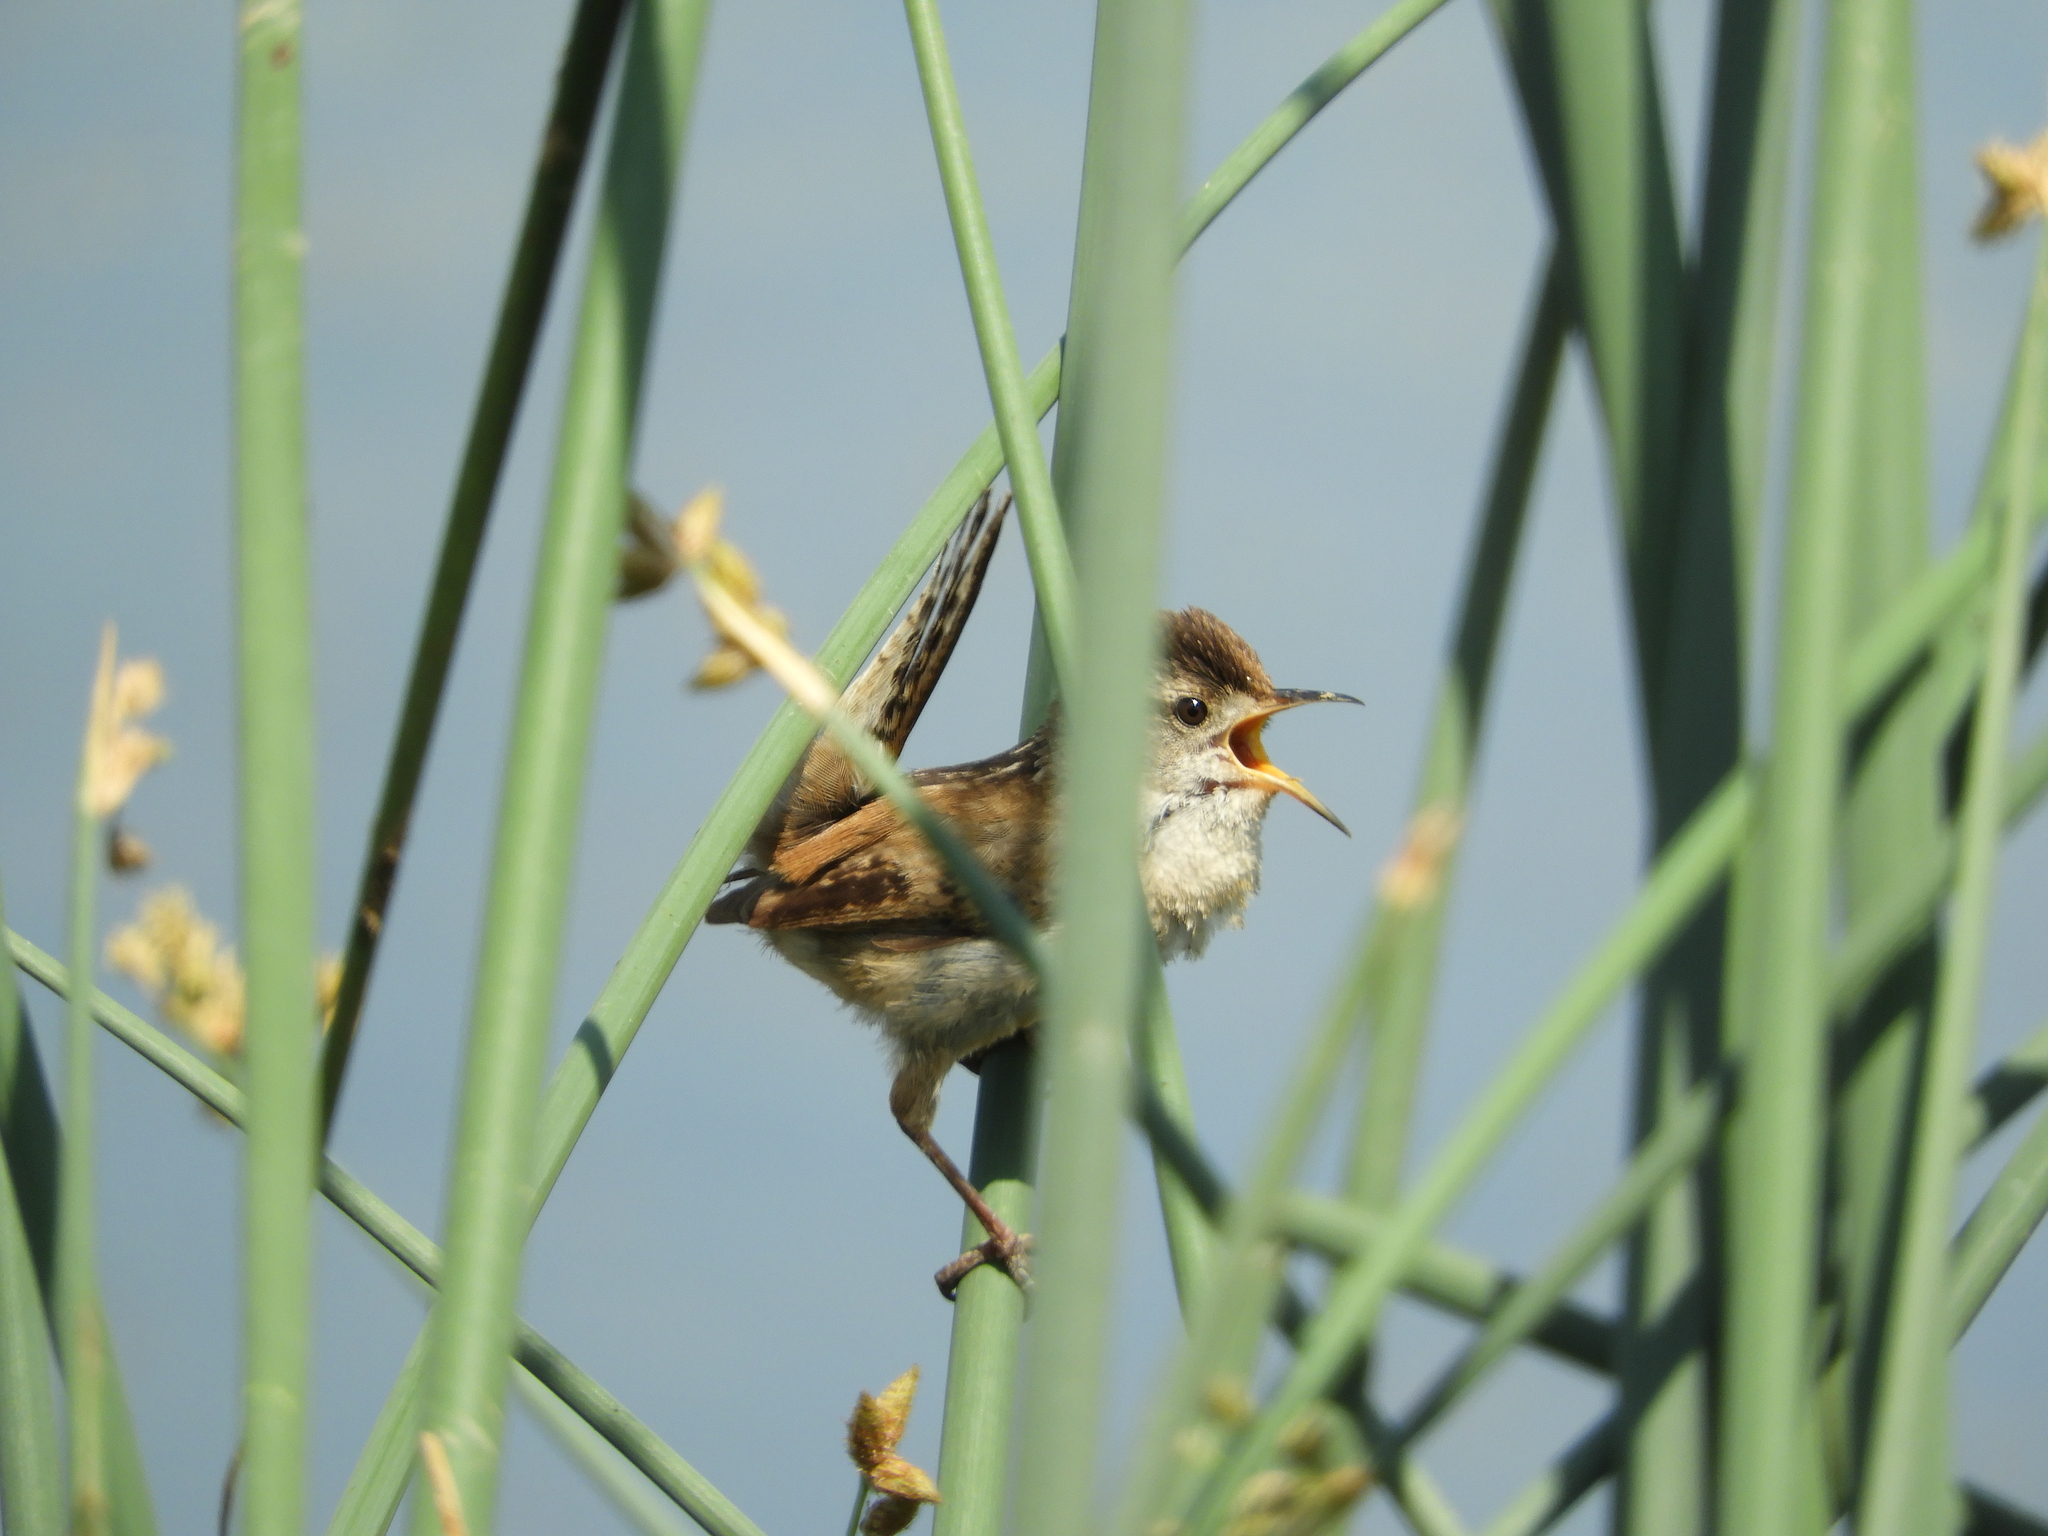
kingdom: Animalia
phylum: Chordata
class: Aves
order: Passeriformes
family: Troglodytidae
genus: Cistothorus
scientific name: Cistothorus palustris
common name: Marsh wren
